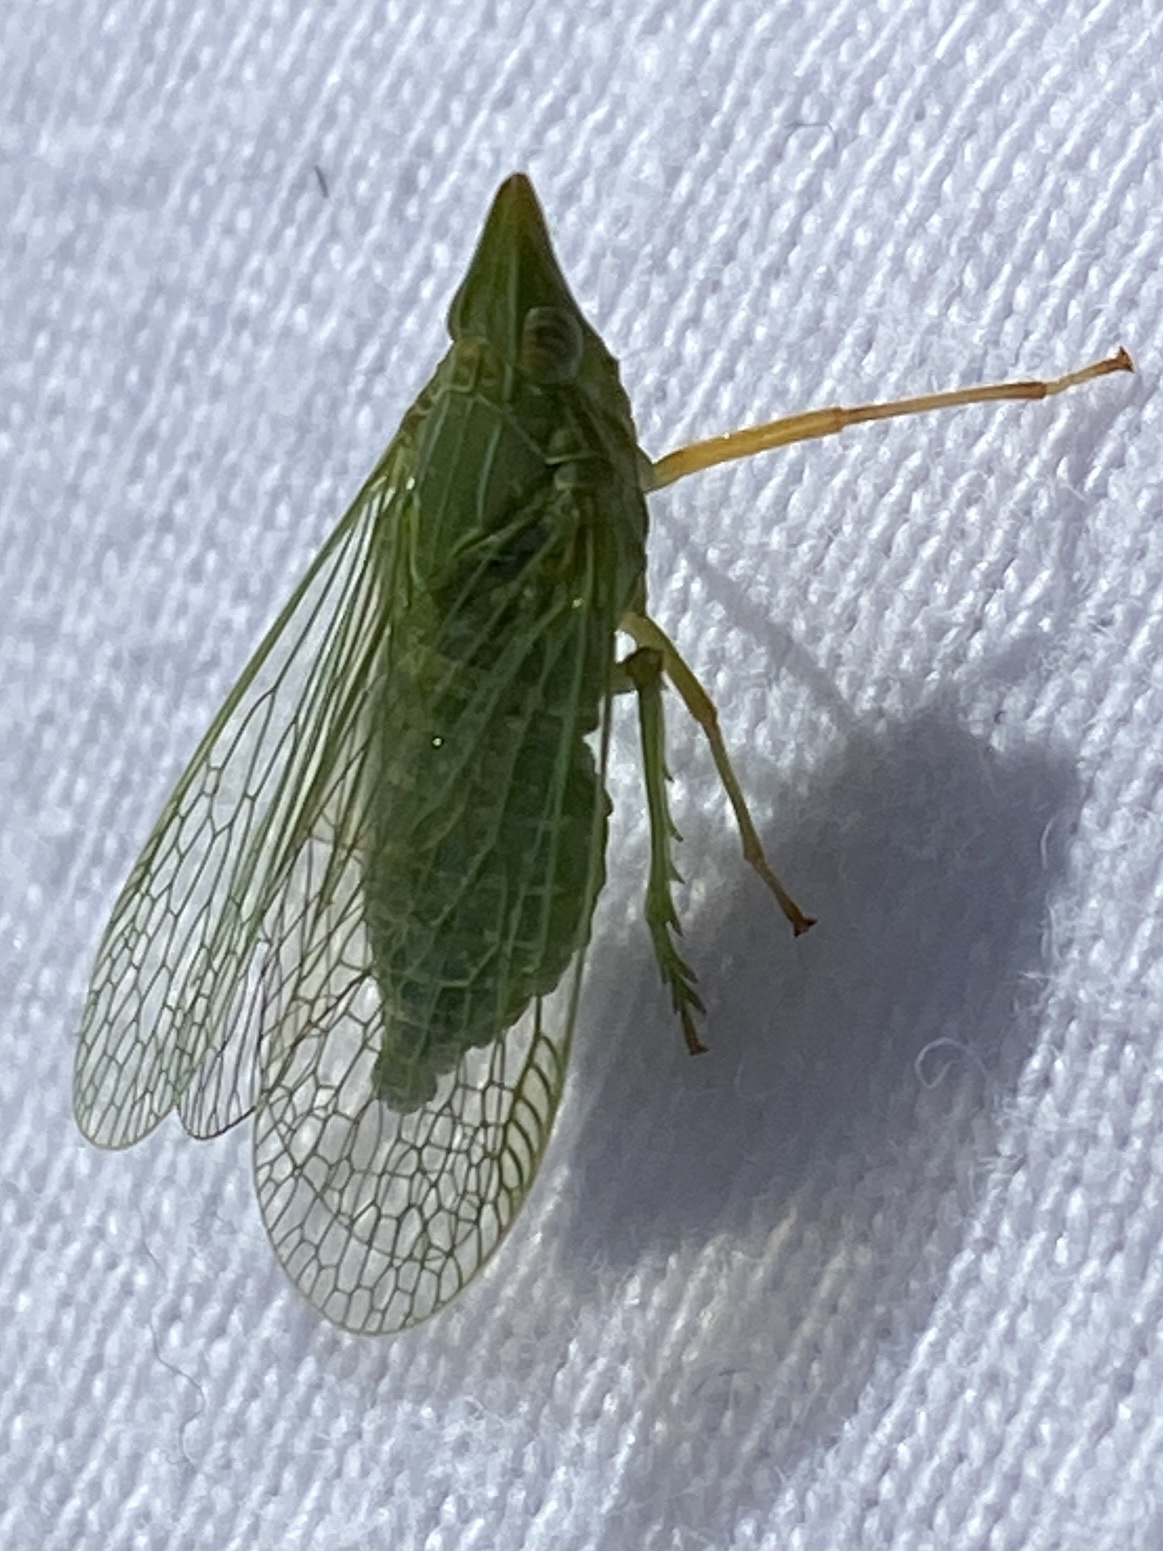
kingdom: Animalia
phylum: Arthropoda
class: Insecta
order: Hemiptera
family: Dictyopharidae
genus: Dictyophara
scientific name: Dictyophara multireticulata
